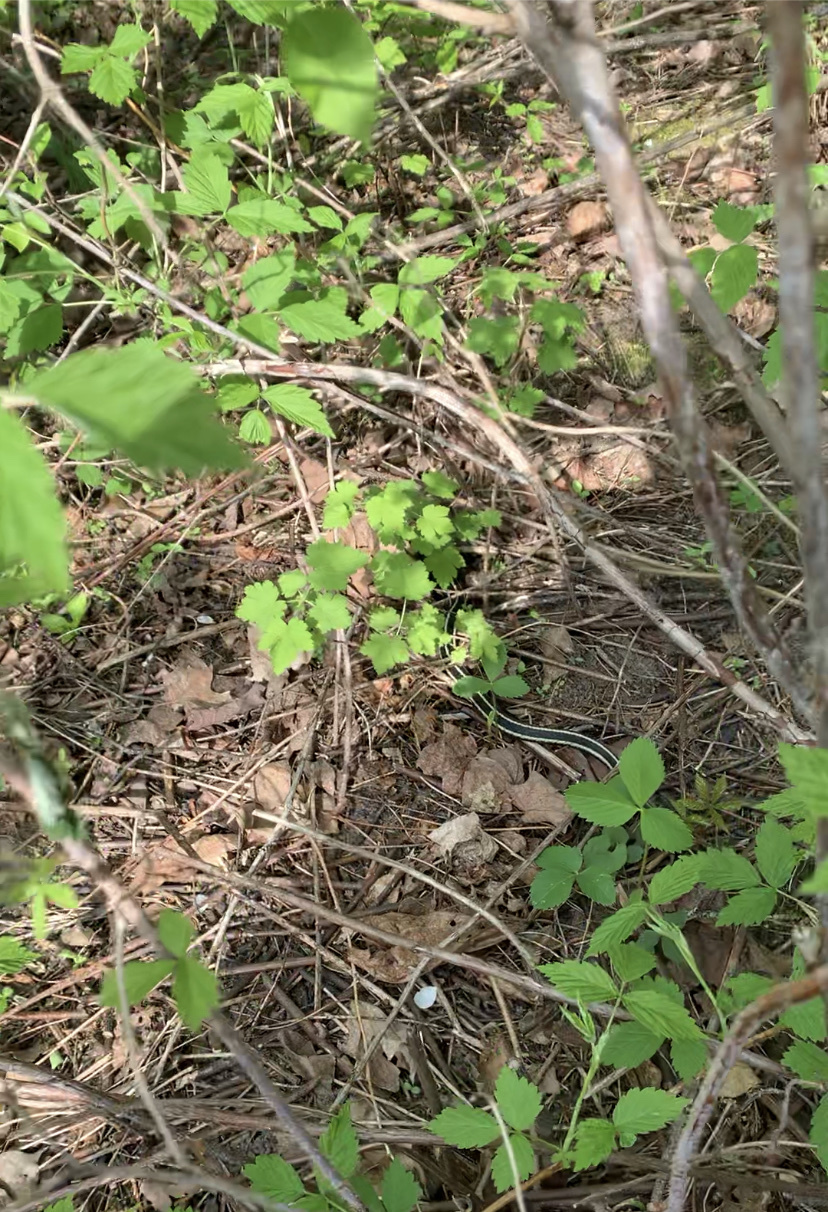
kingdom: Animalia
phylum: Chordata
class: Squamata
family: Colubridae
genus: Thamnophis
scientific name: Thamnophis sirtalis
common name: Common garter snake
